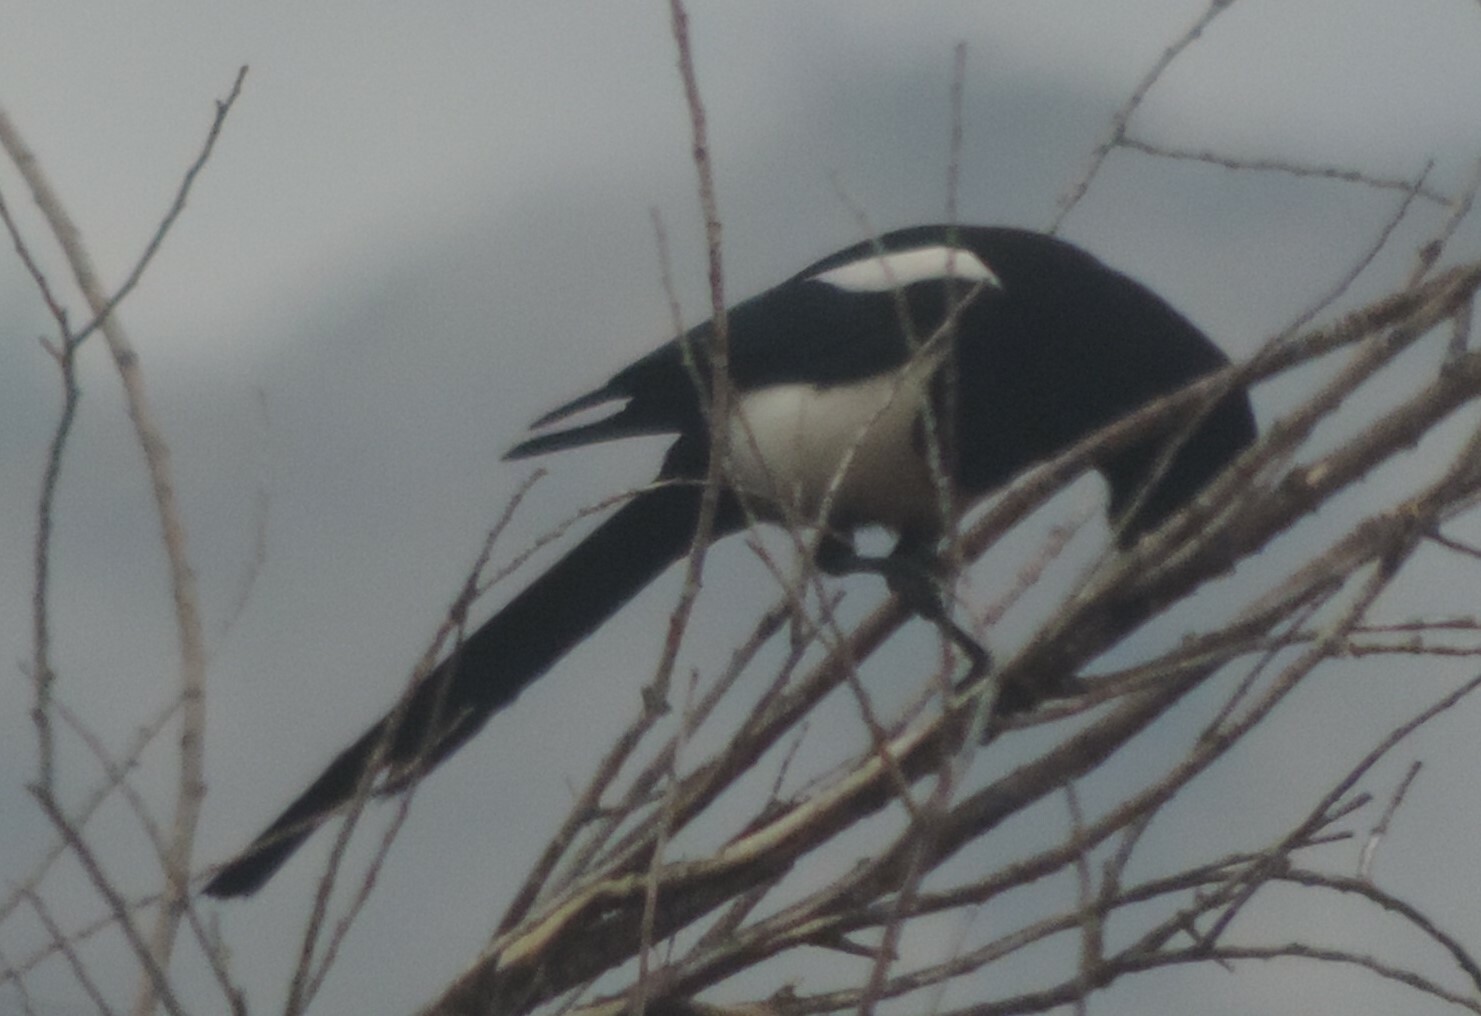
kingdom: Animalia
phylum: Chordata
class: Aves
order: Passeriformes
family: Corvidae
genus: Pica
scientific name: Pica hudsonia
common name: Black-billed magpie
